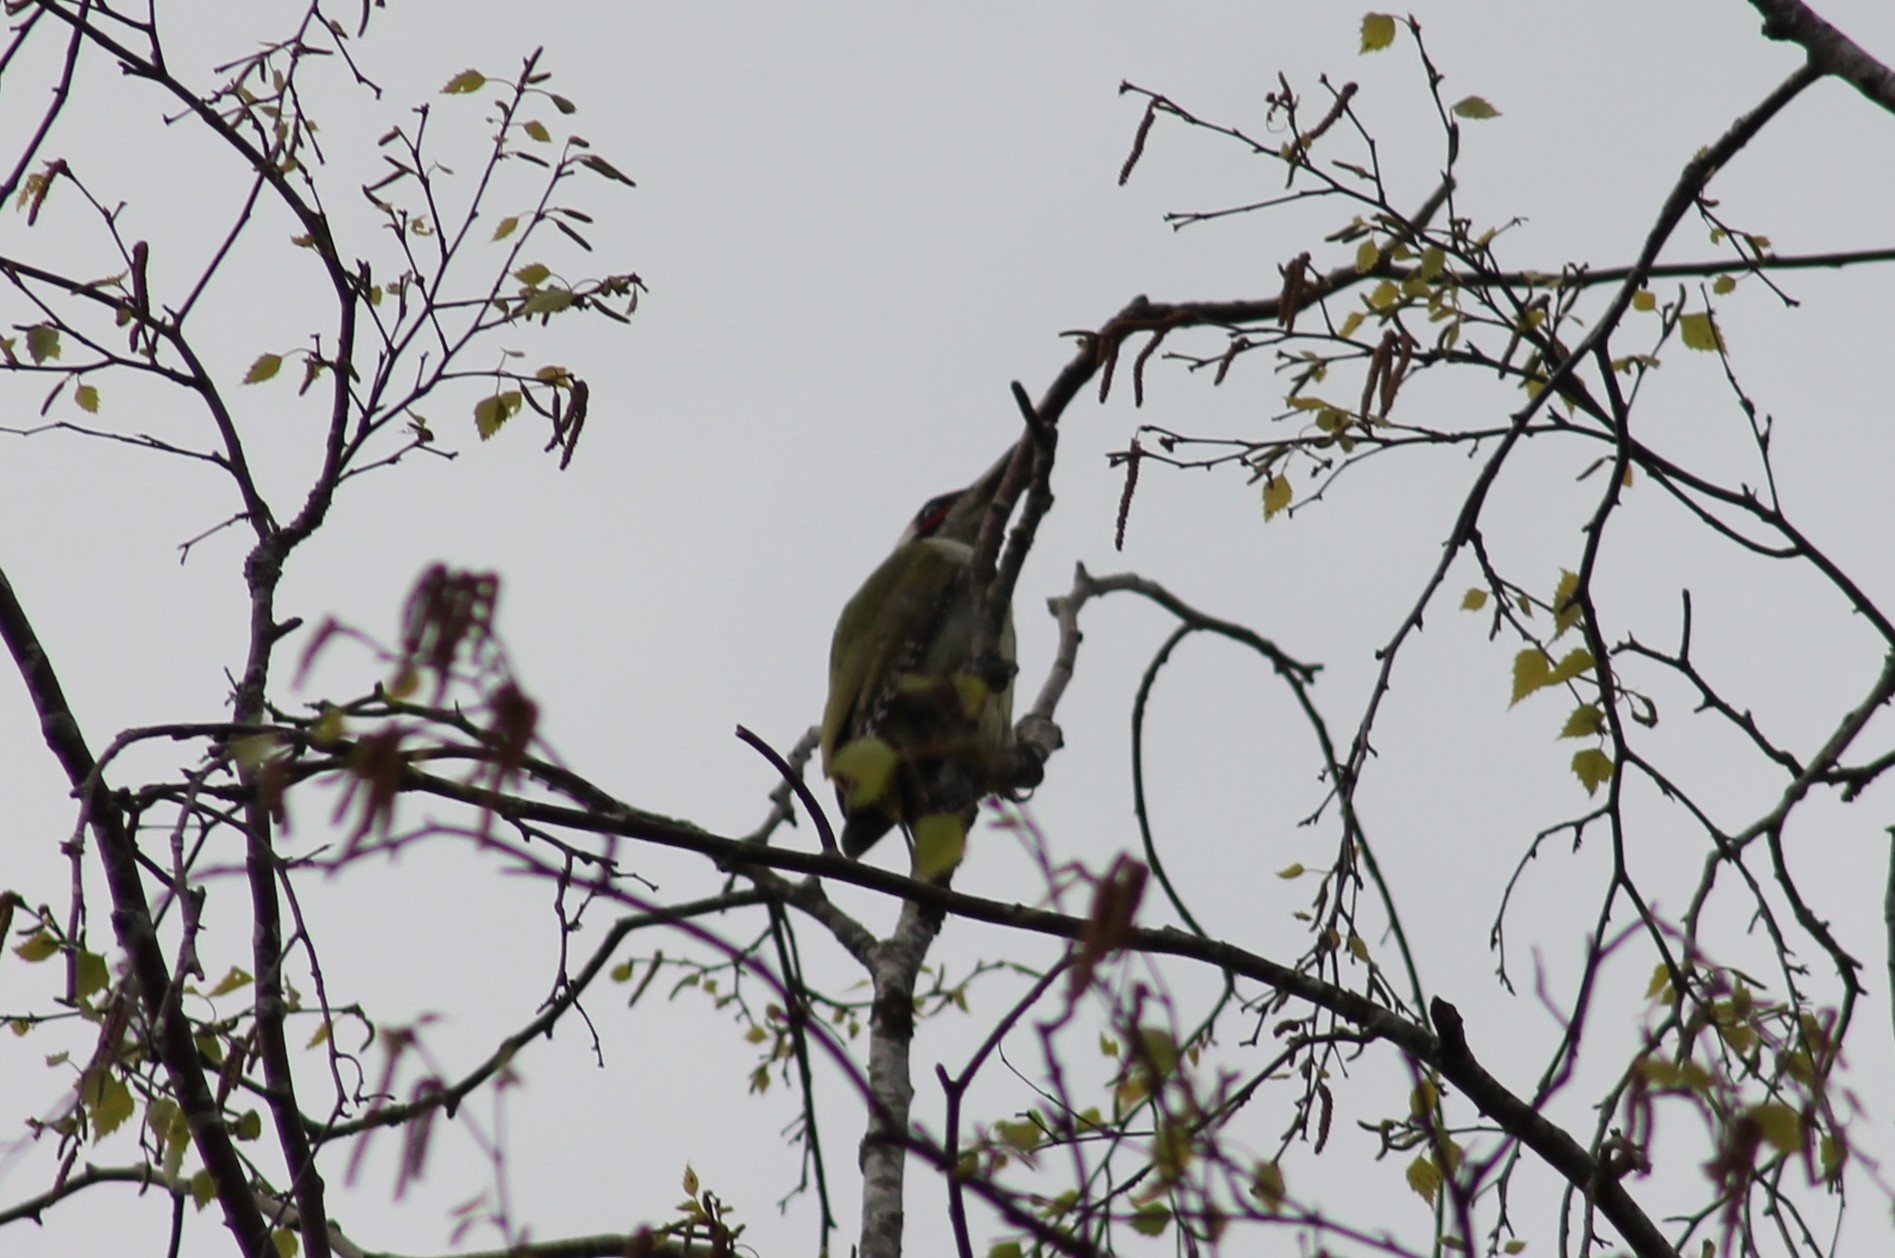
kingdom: Animalia
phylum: Chordata
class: Aves
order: Piciformes
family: Picidae
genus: Picus
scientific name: Picus viridis
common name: European green woodpecker
